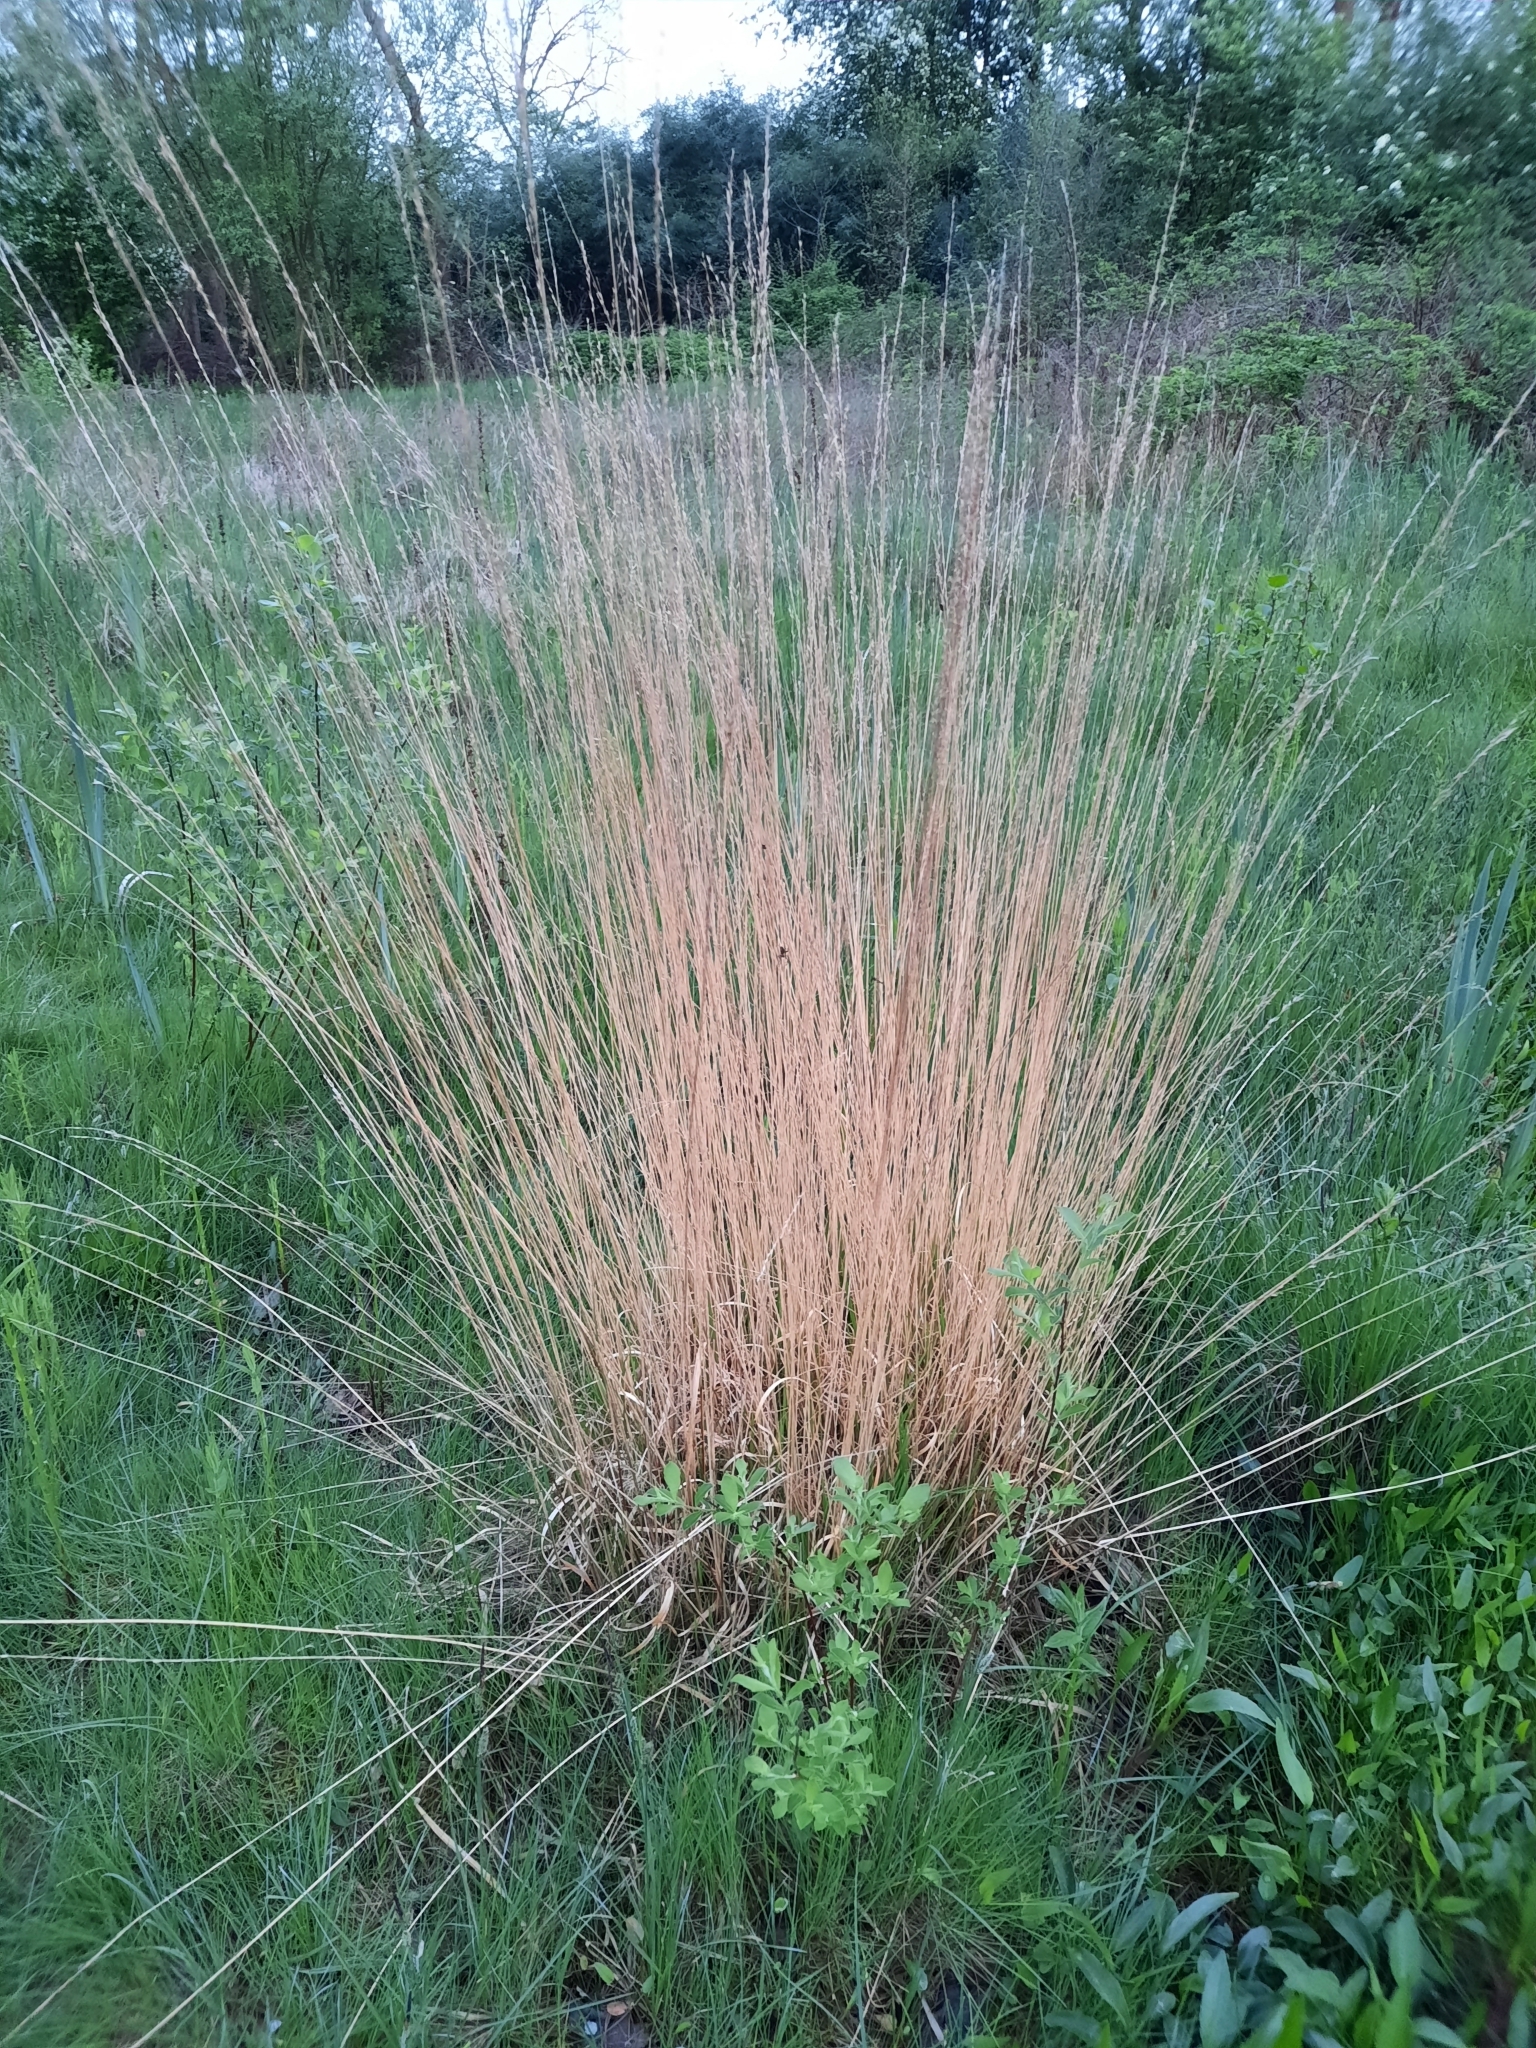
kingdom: Plantae
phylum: Tracheophyta
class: Liliopsida
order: Poales
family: Poaceae
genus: Molinia
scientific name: Molinia caerulea
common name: Purple moor-grass
